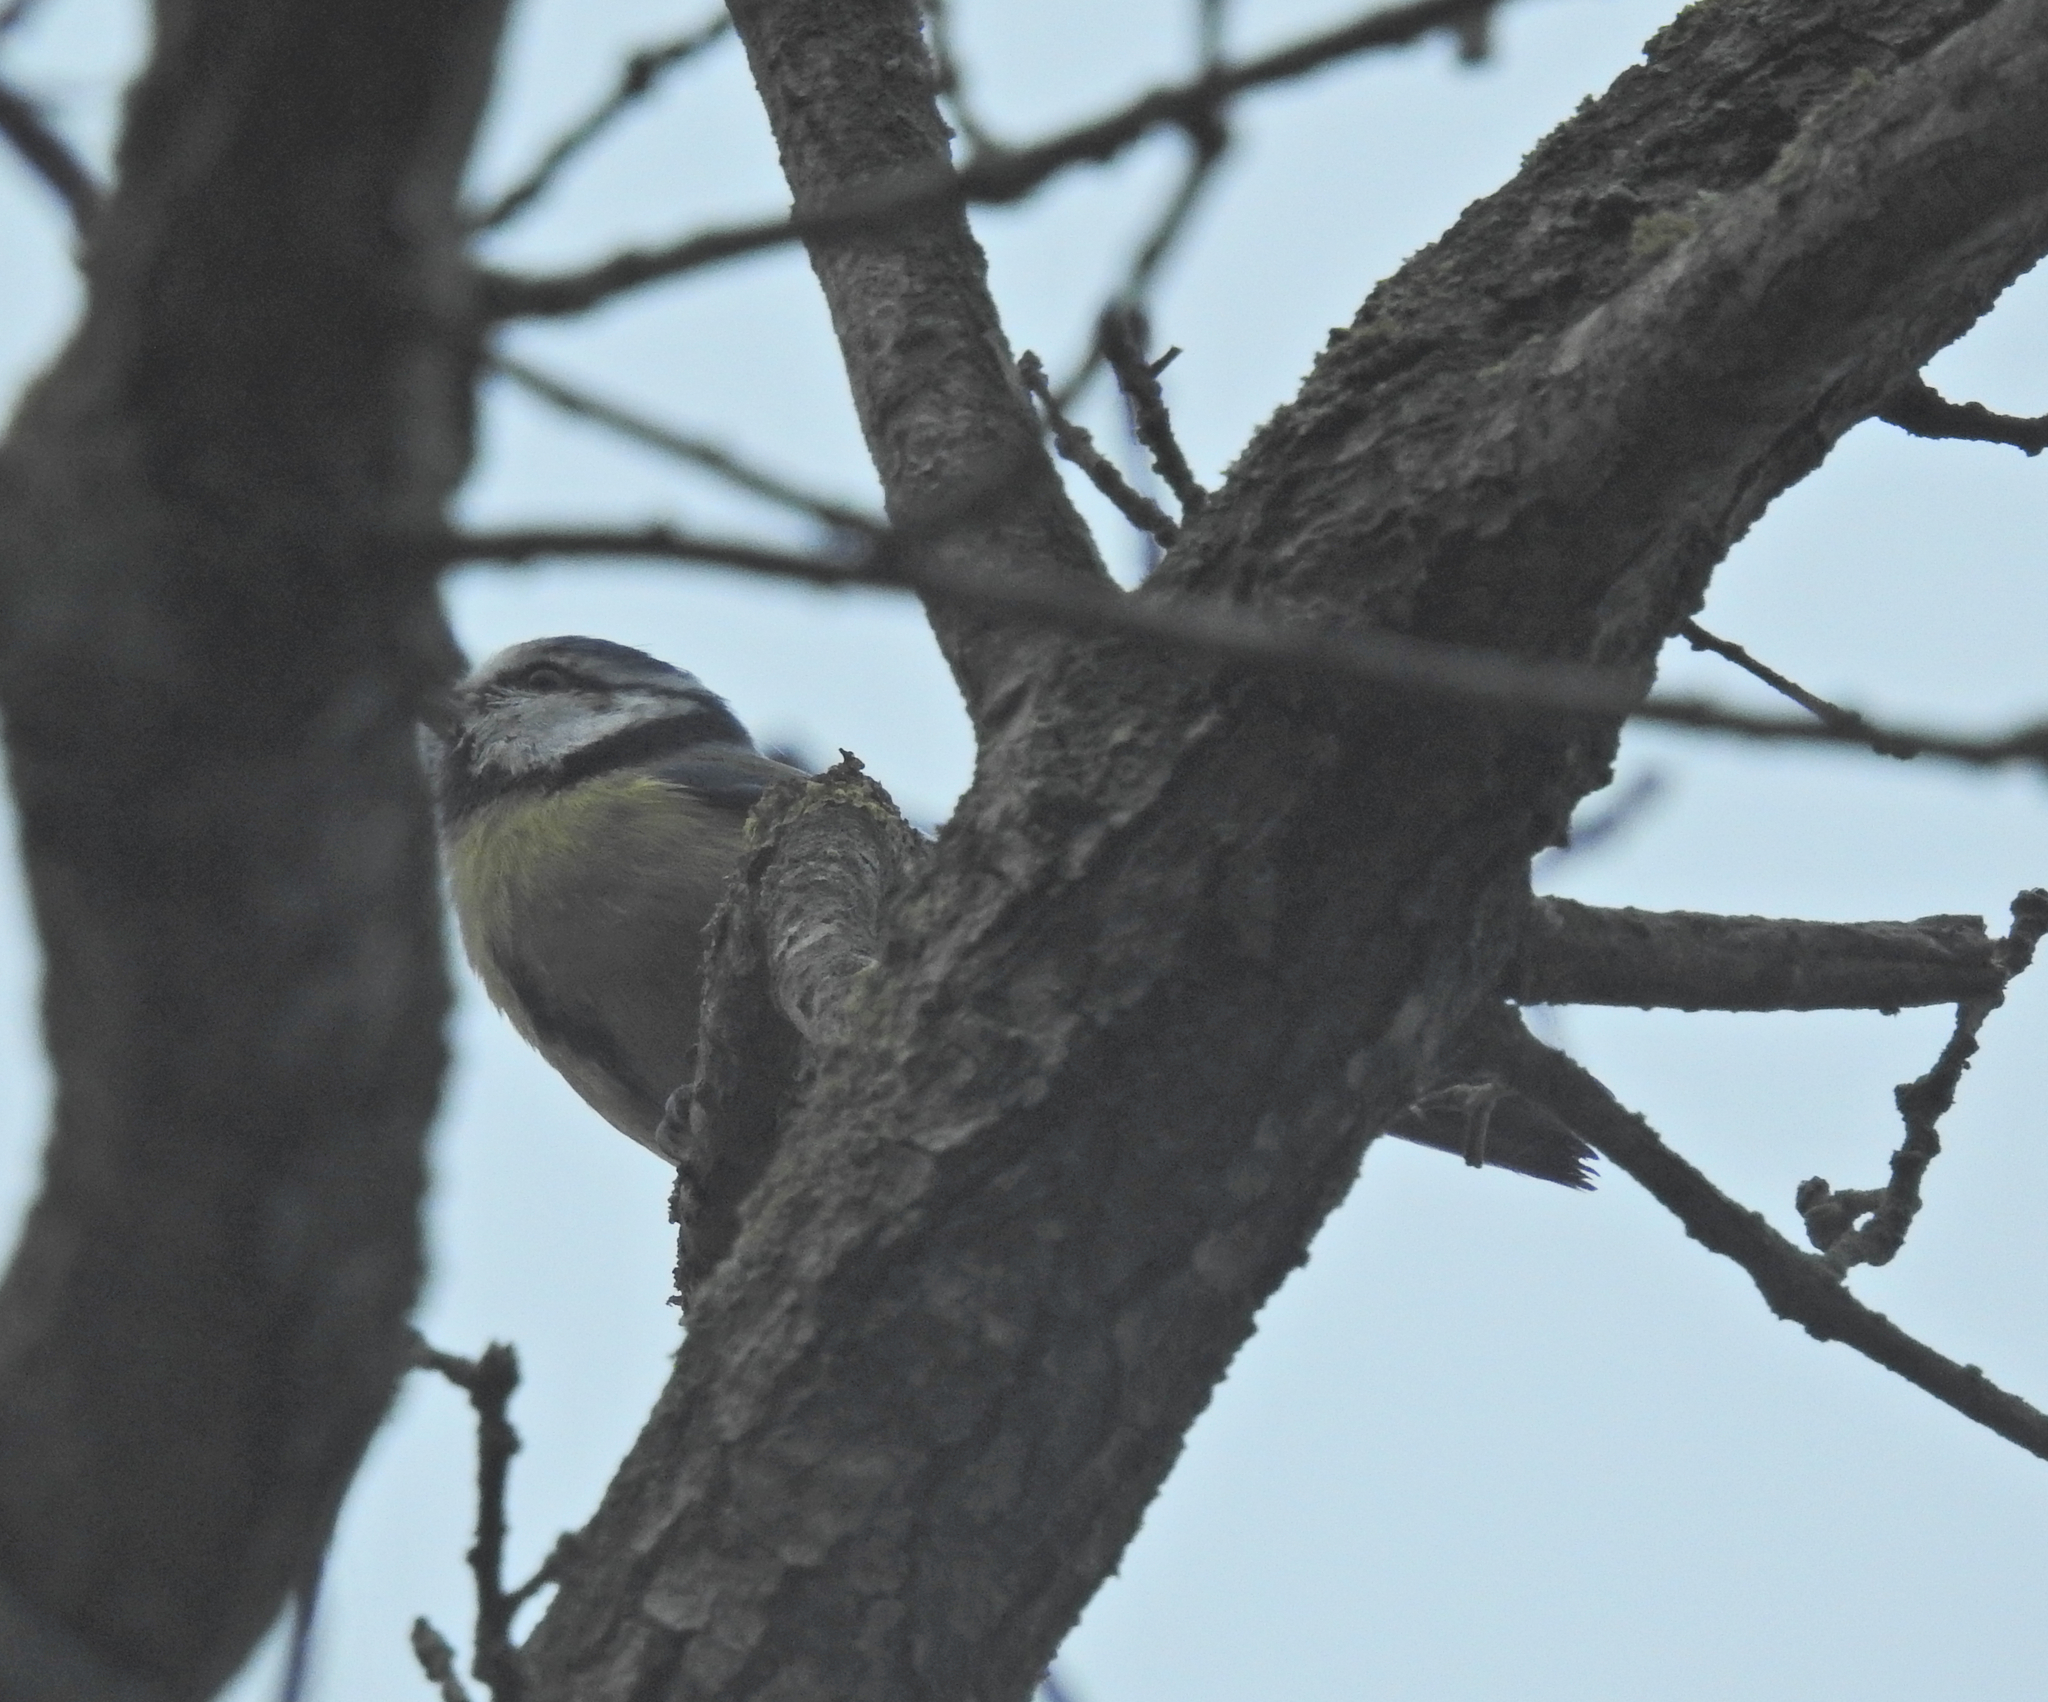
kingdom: Animalia
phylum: Chordata
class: Aves
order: Passeriformes
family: Paridae
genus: Cyanistes
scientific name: Cyanistes caeruleus
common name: Eurasian blue tit
